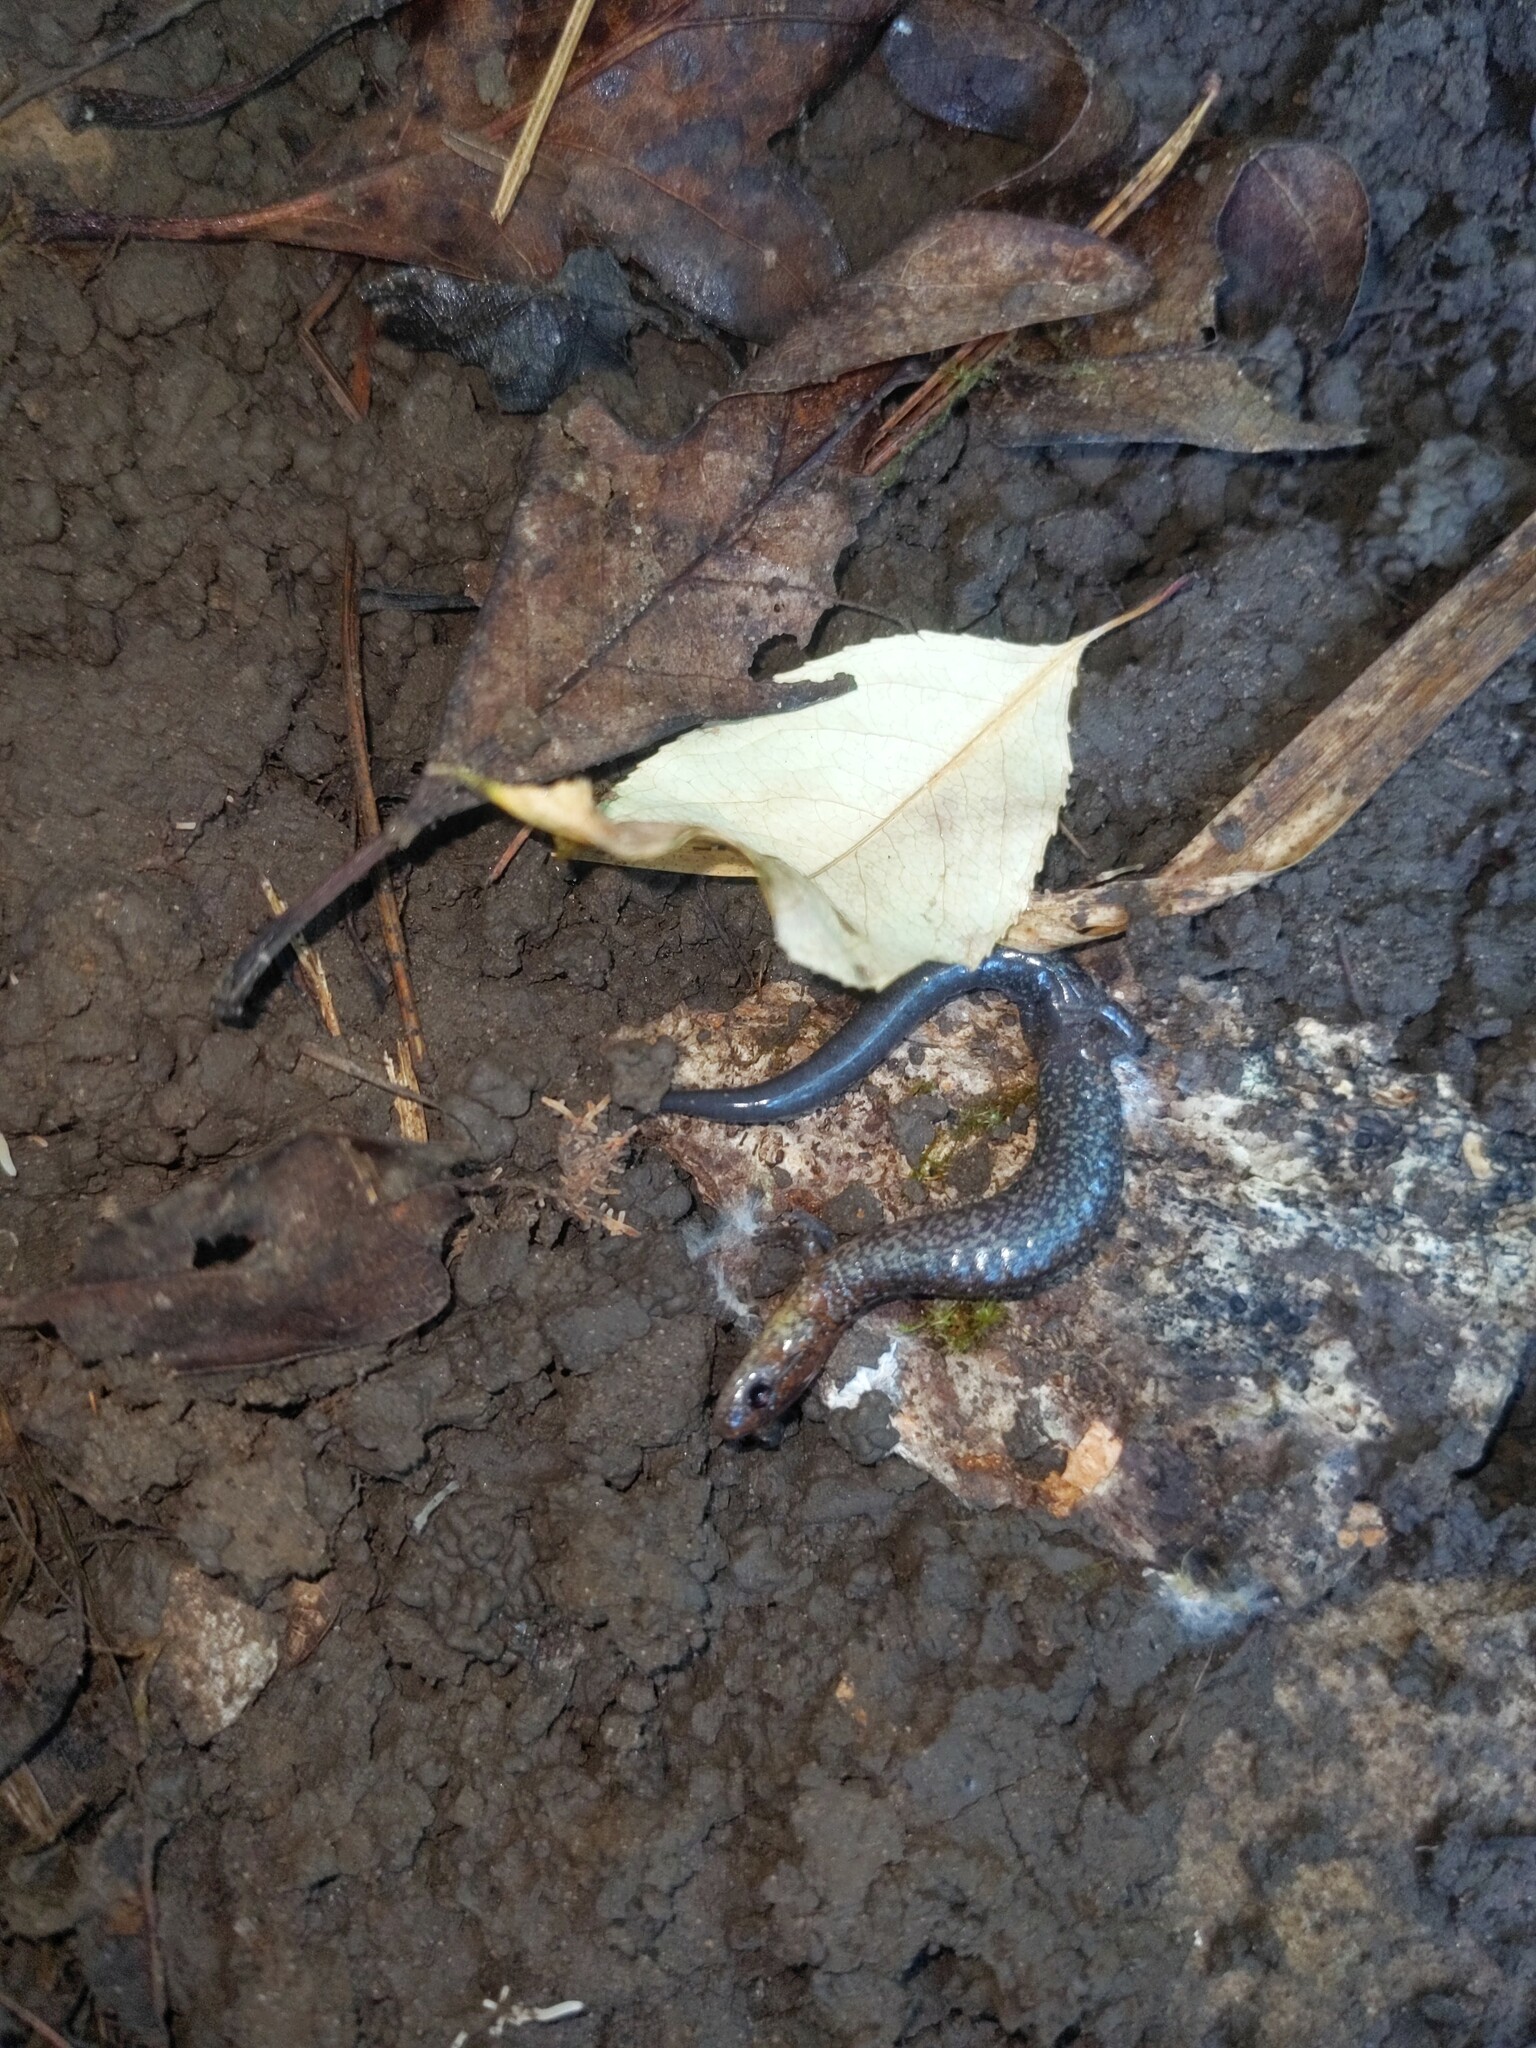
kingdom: Animalia
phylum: Chordata
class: Amphibia
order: Caudata
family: Plethodontidae
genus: Plethodon
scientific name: Plethodon cinereus
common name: Redback salamander
